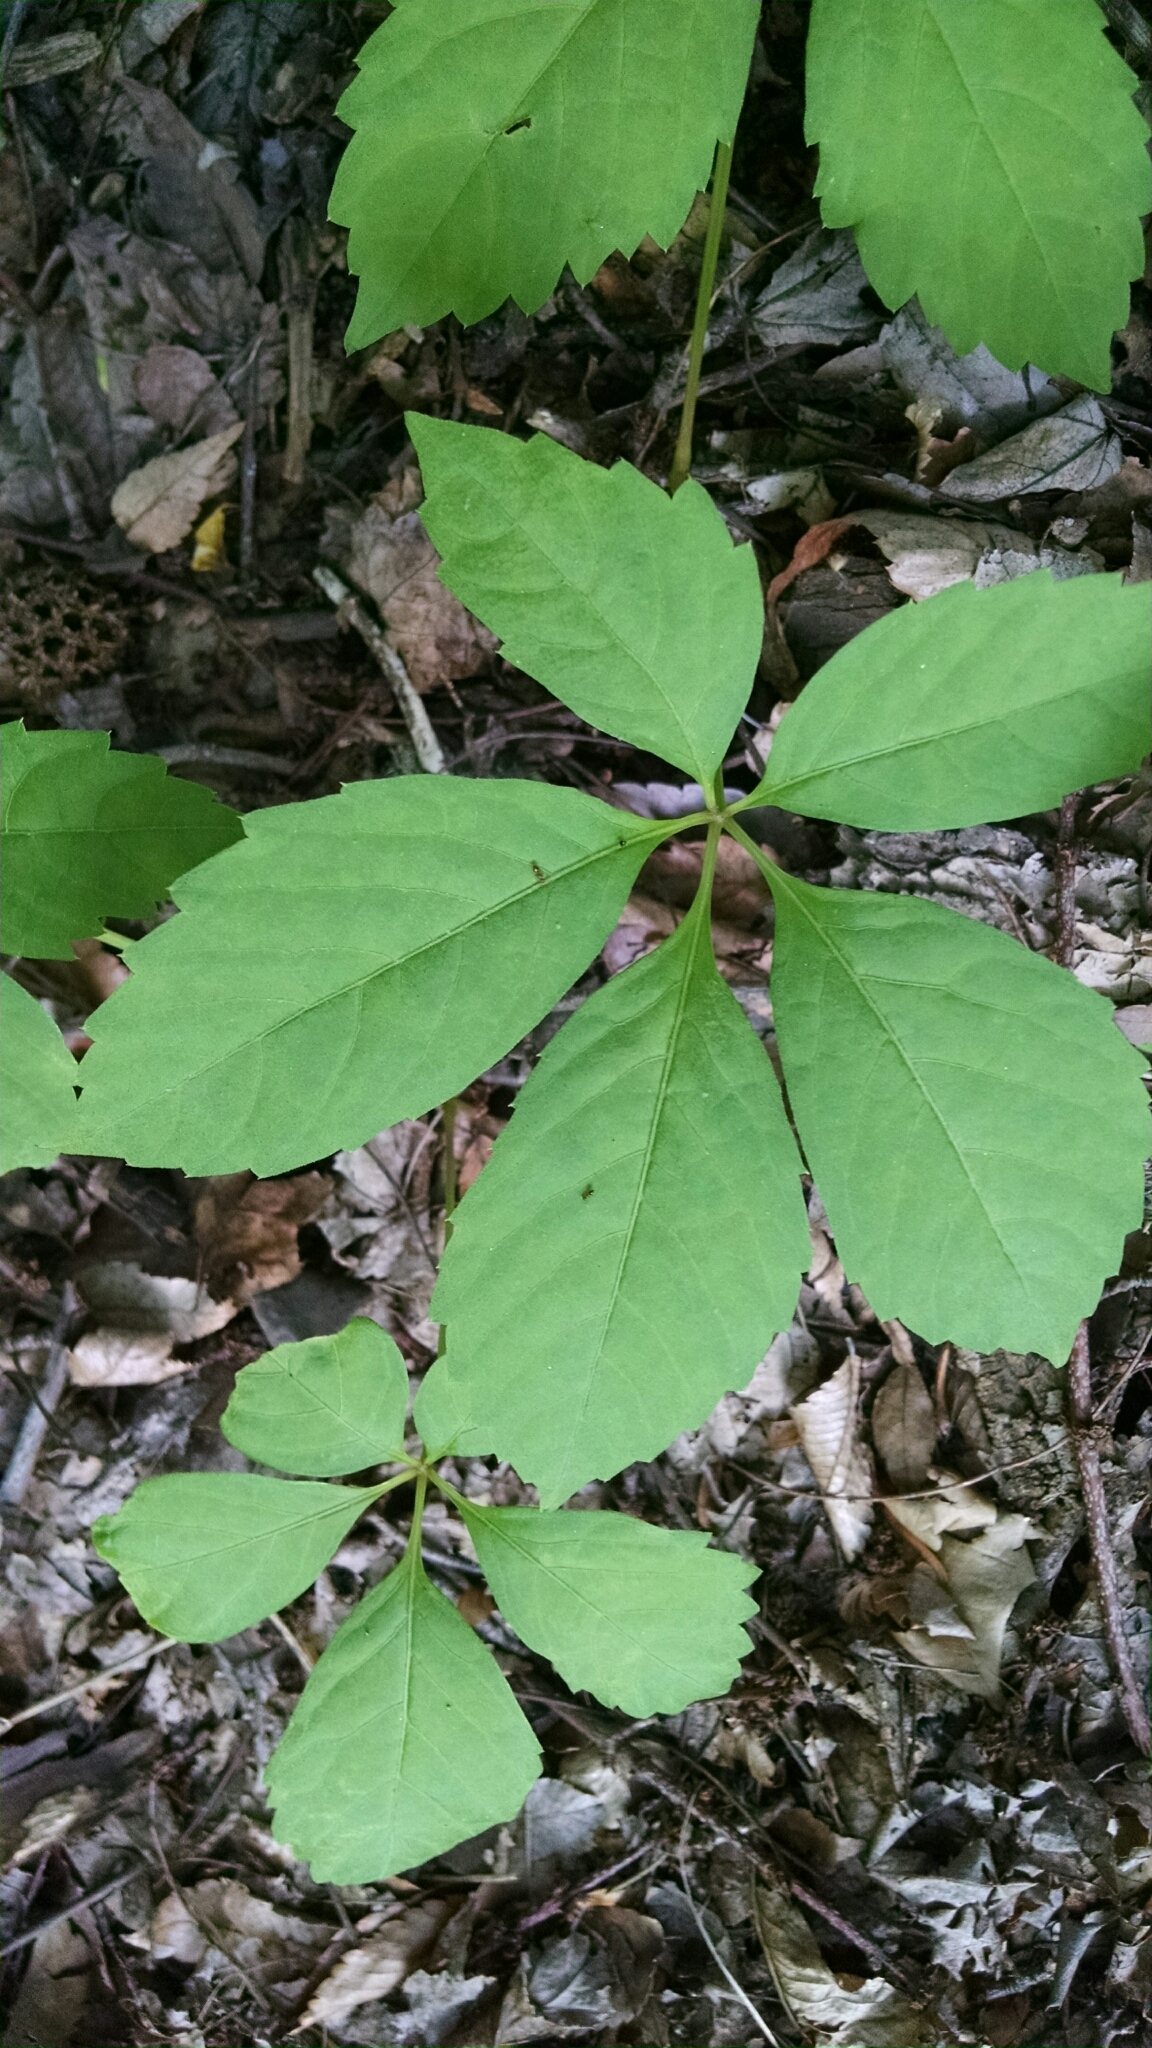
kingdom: Plantae
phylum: Tracheophyta
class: Magnoliopsida
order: Vitales
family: Vitaceae
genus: Parthenocissus
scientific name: Parthenocissus quinquefolia
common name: Virginia-creeper
